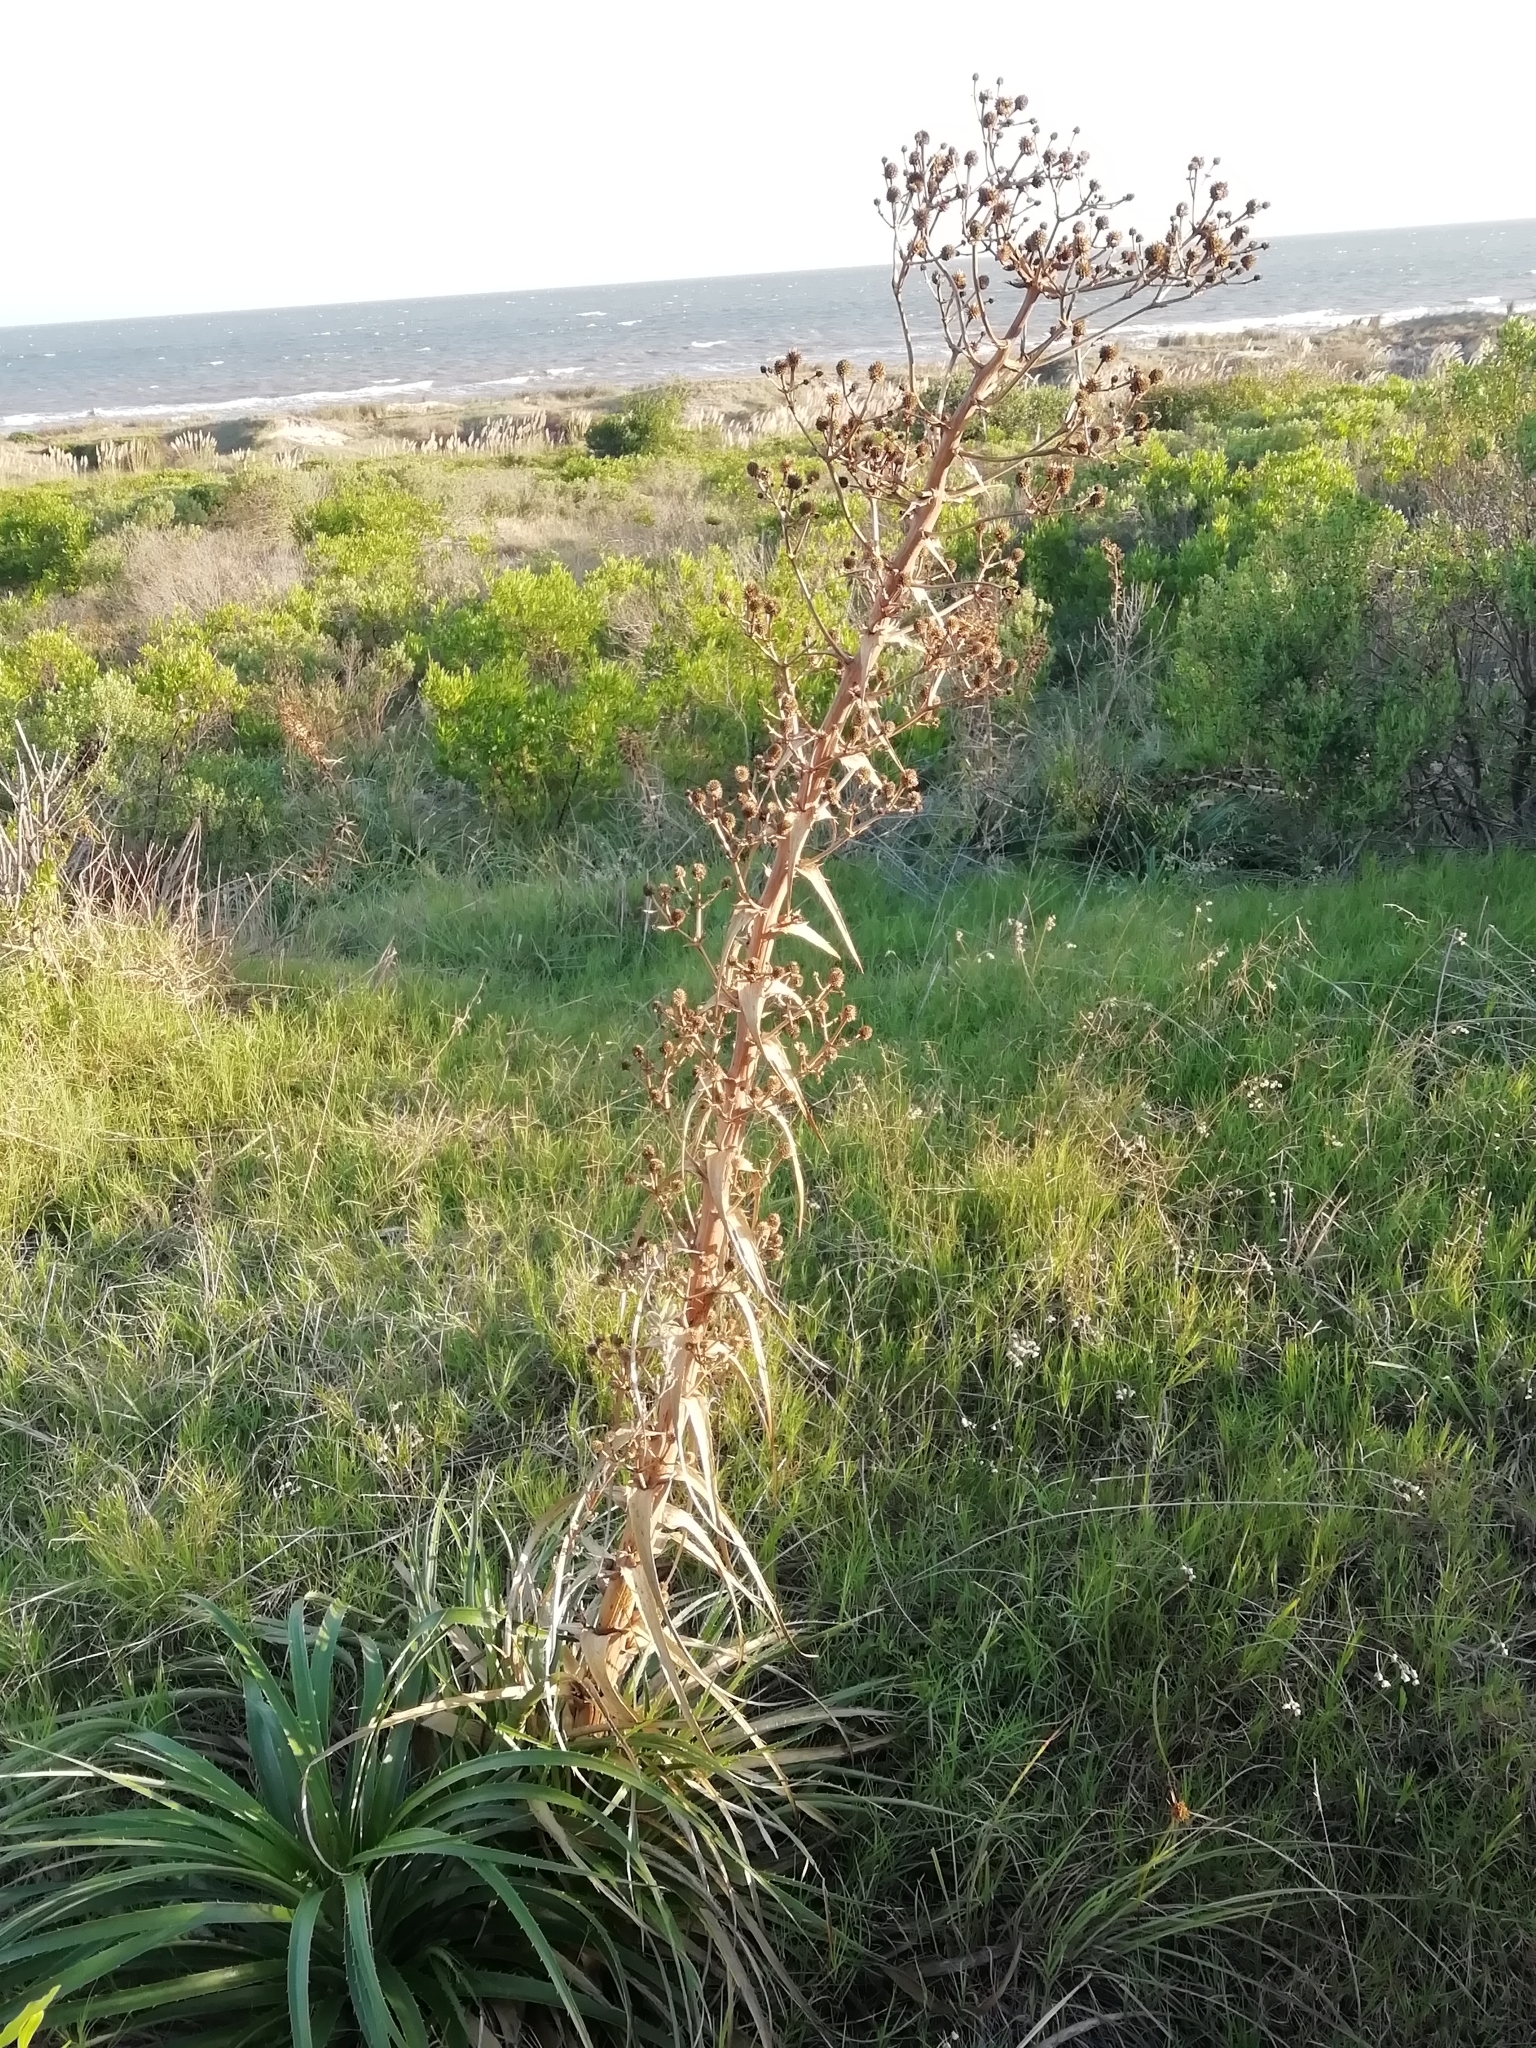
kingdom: Plantae
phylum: Tracheophyta
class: Magnoliopsida
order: Apiales
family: Apiaceae
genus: Eryngium
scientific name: Eryngium horridum
